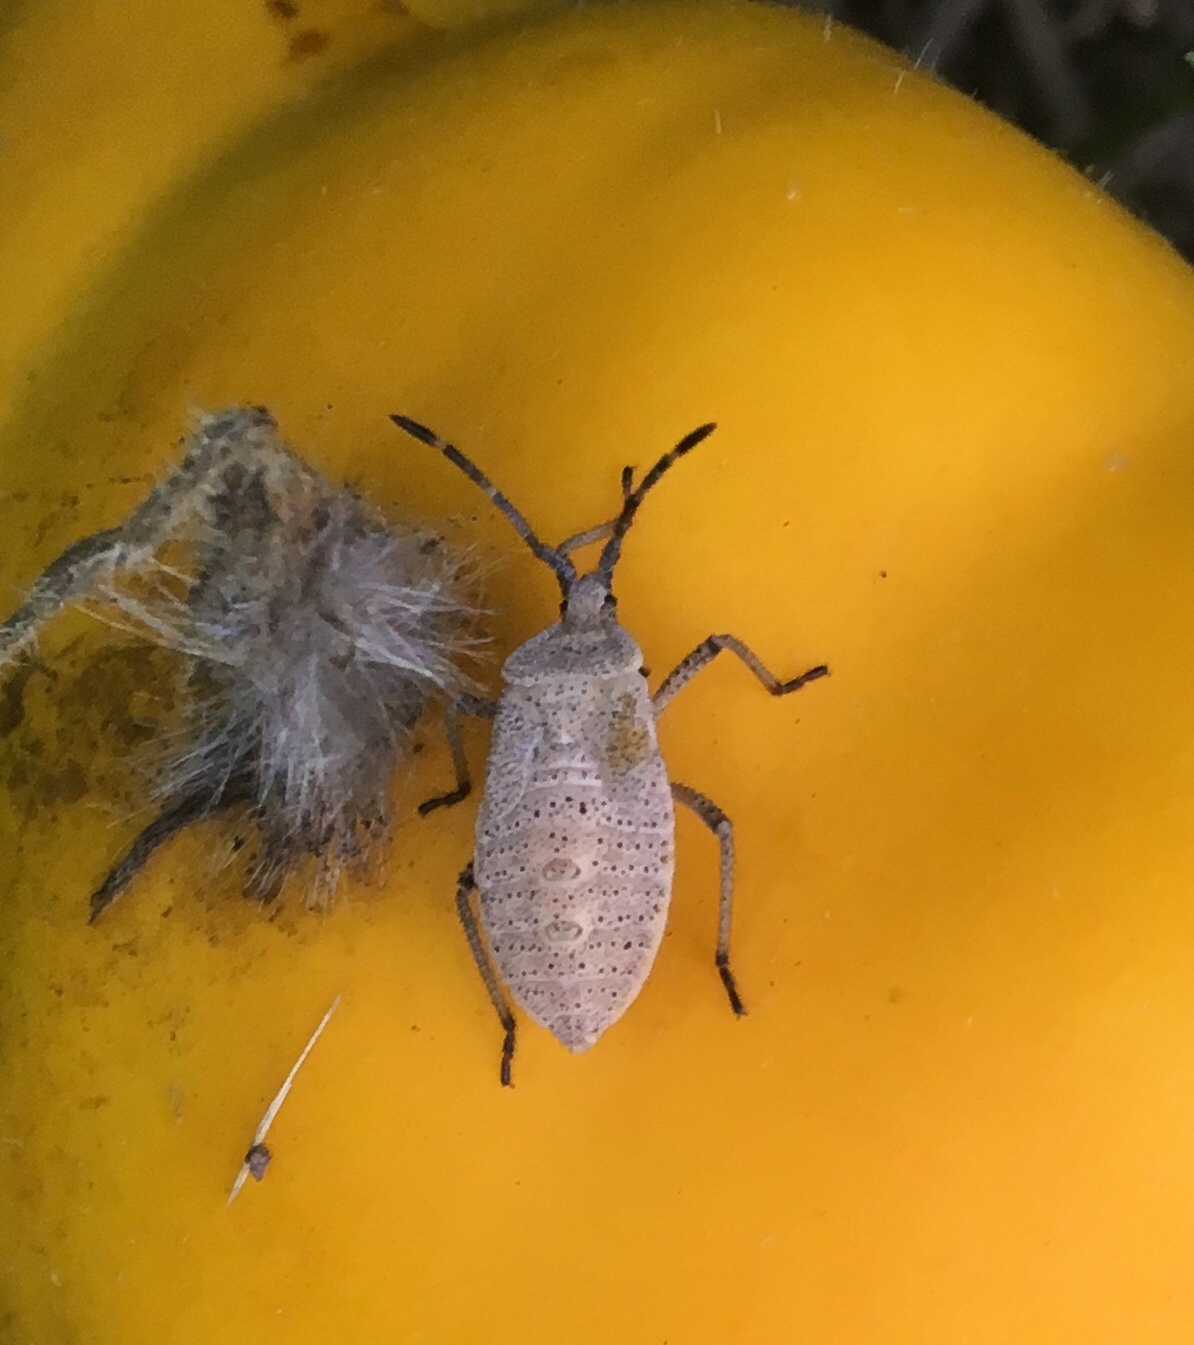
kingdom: Animalia
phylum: Arthropoda
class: Insecta
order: Hemiptera
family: Coreidae
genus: Anasa
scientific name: Anasa tristis
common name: Squash bug
